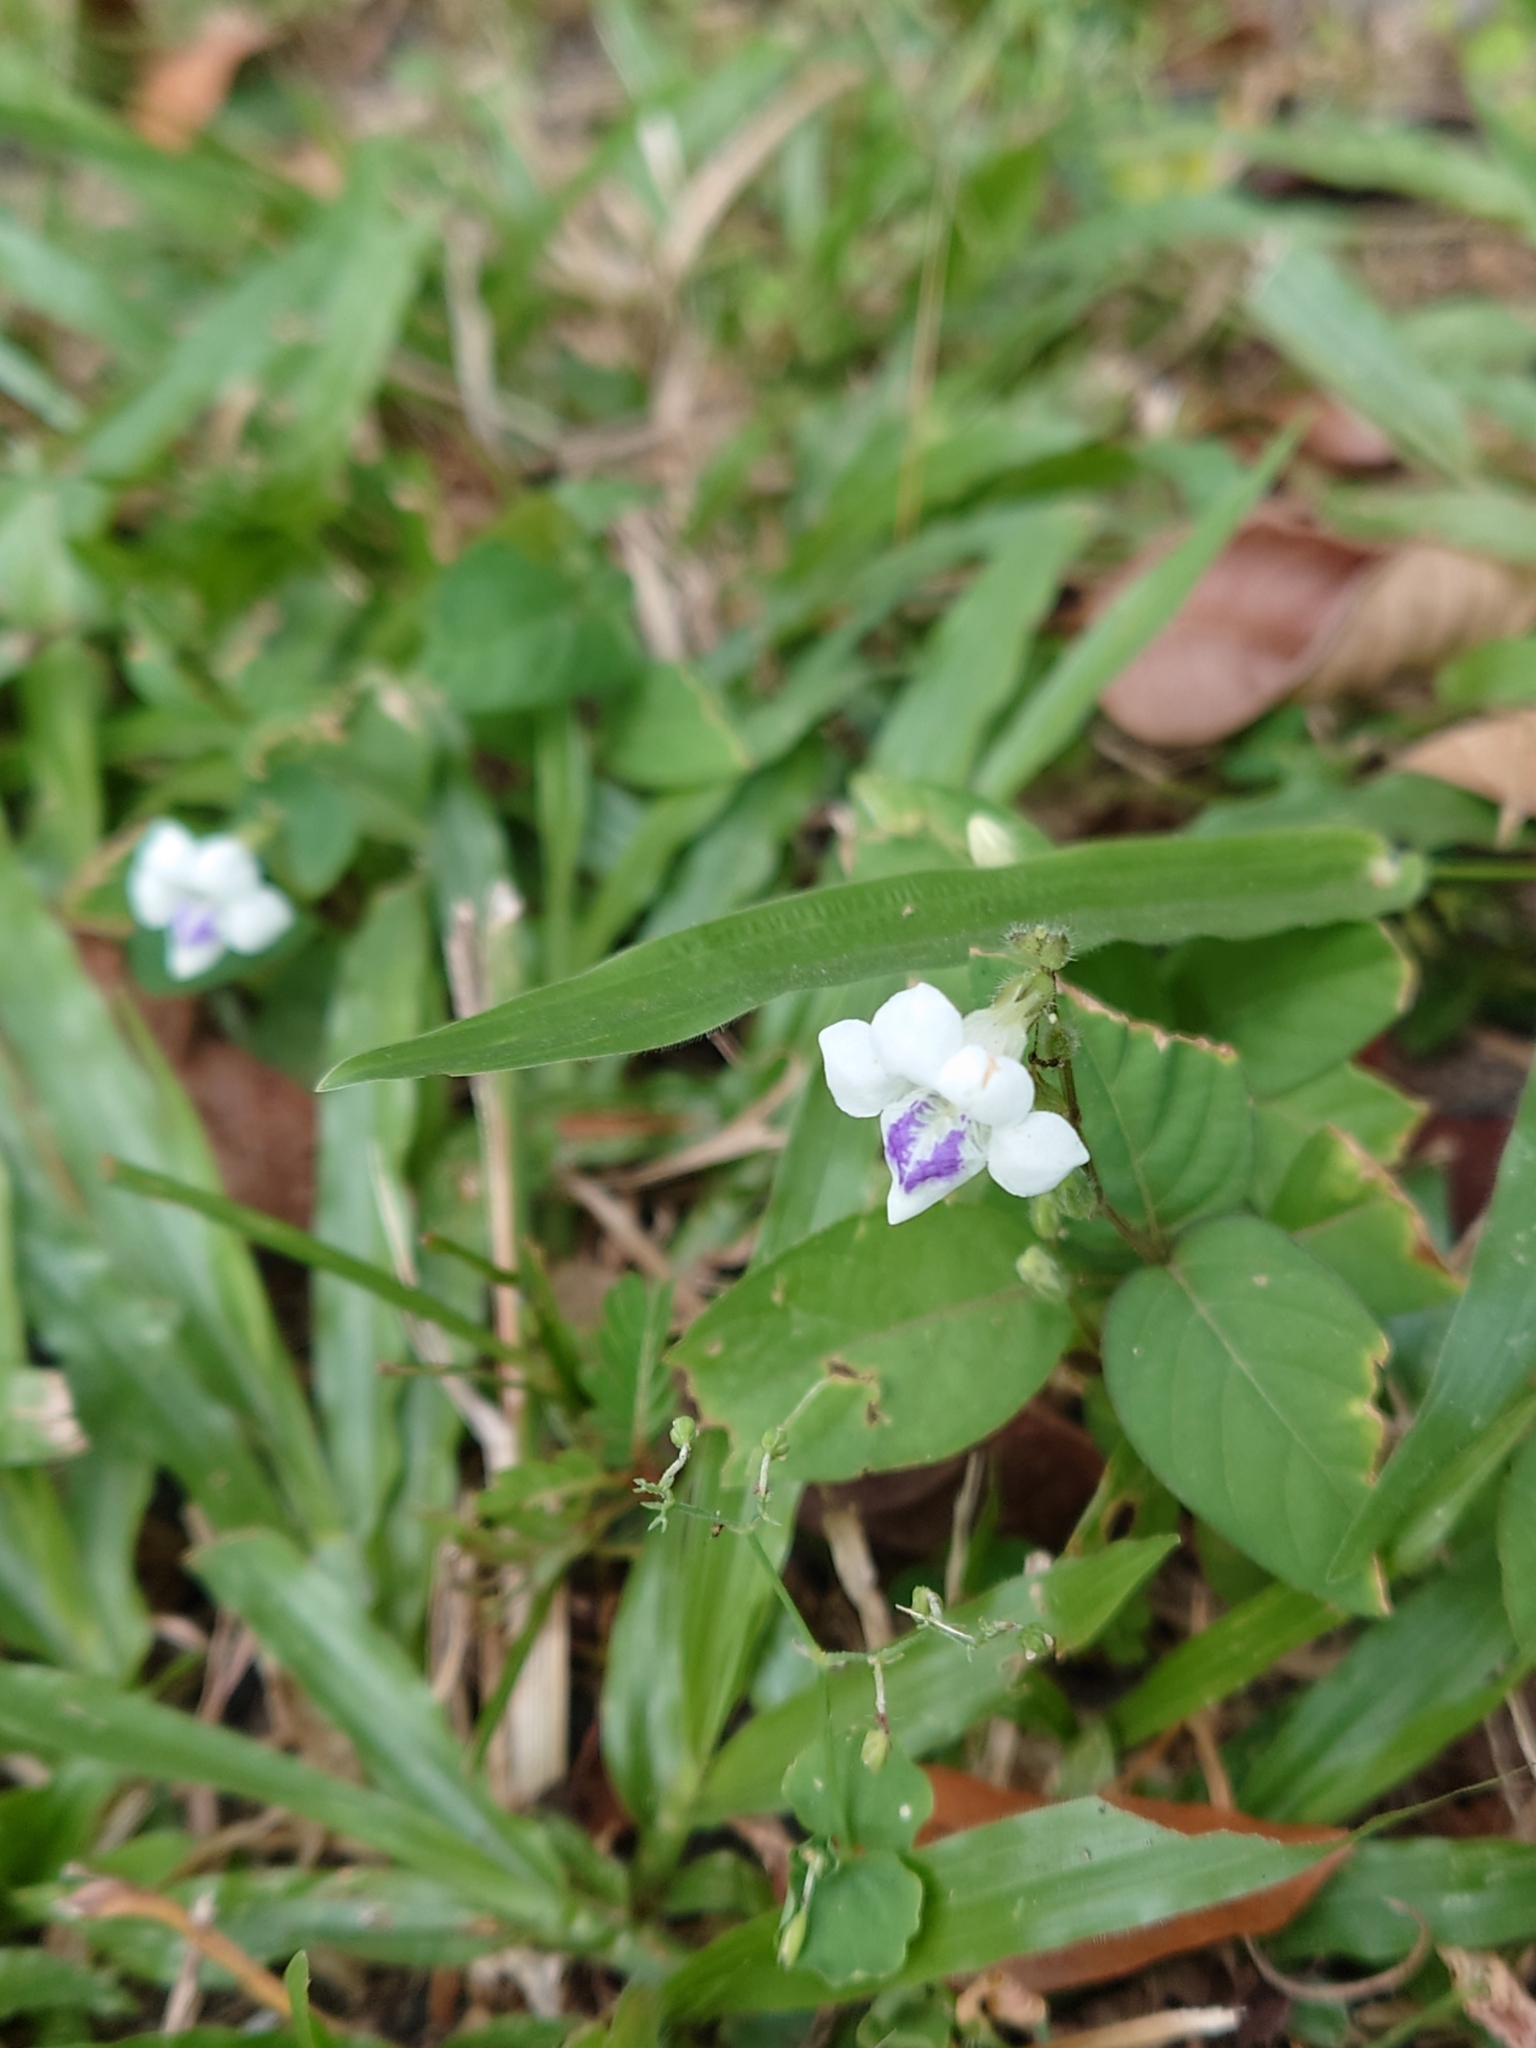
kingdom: Plantae
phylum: Tracheophyta
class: Magnoliopsida
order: Lamiales
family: Acanthaceae
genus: Asystasia
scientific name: Asystasia intrusa
